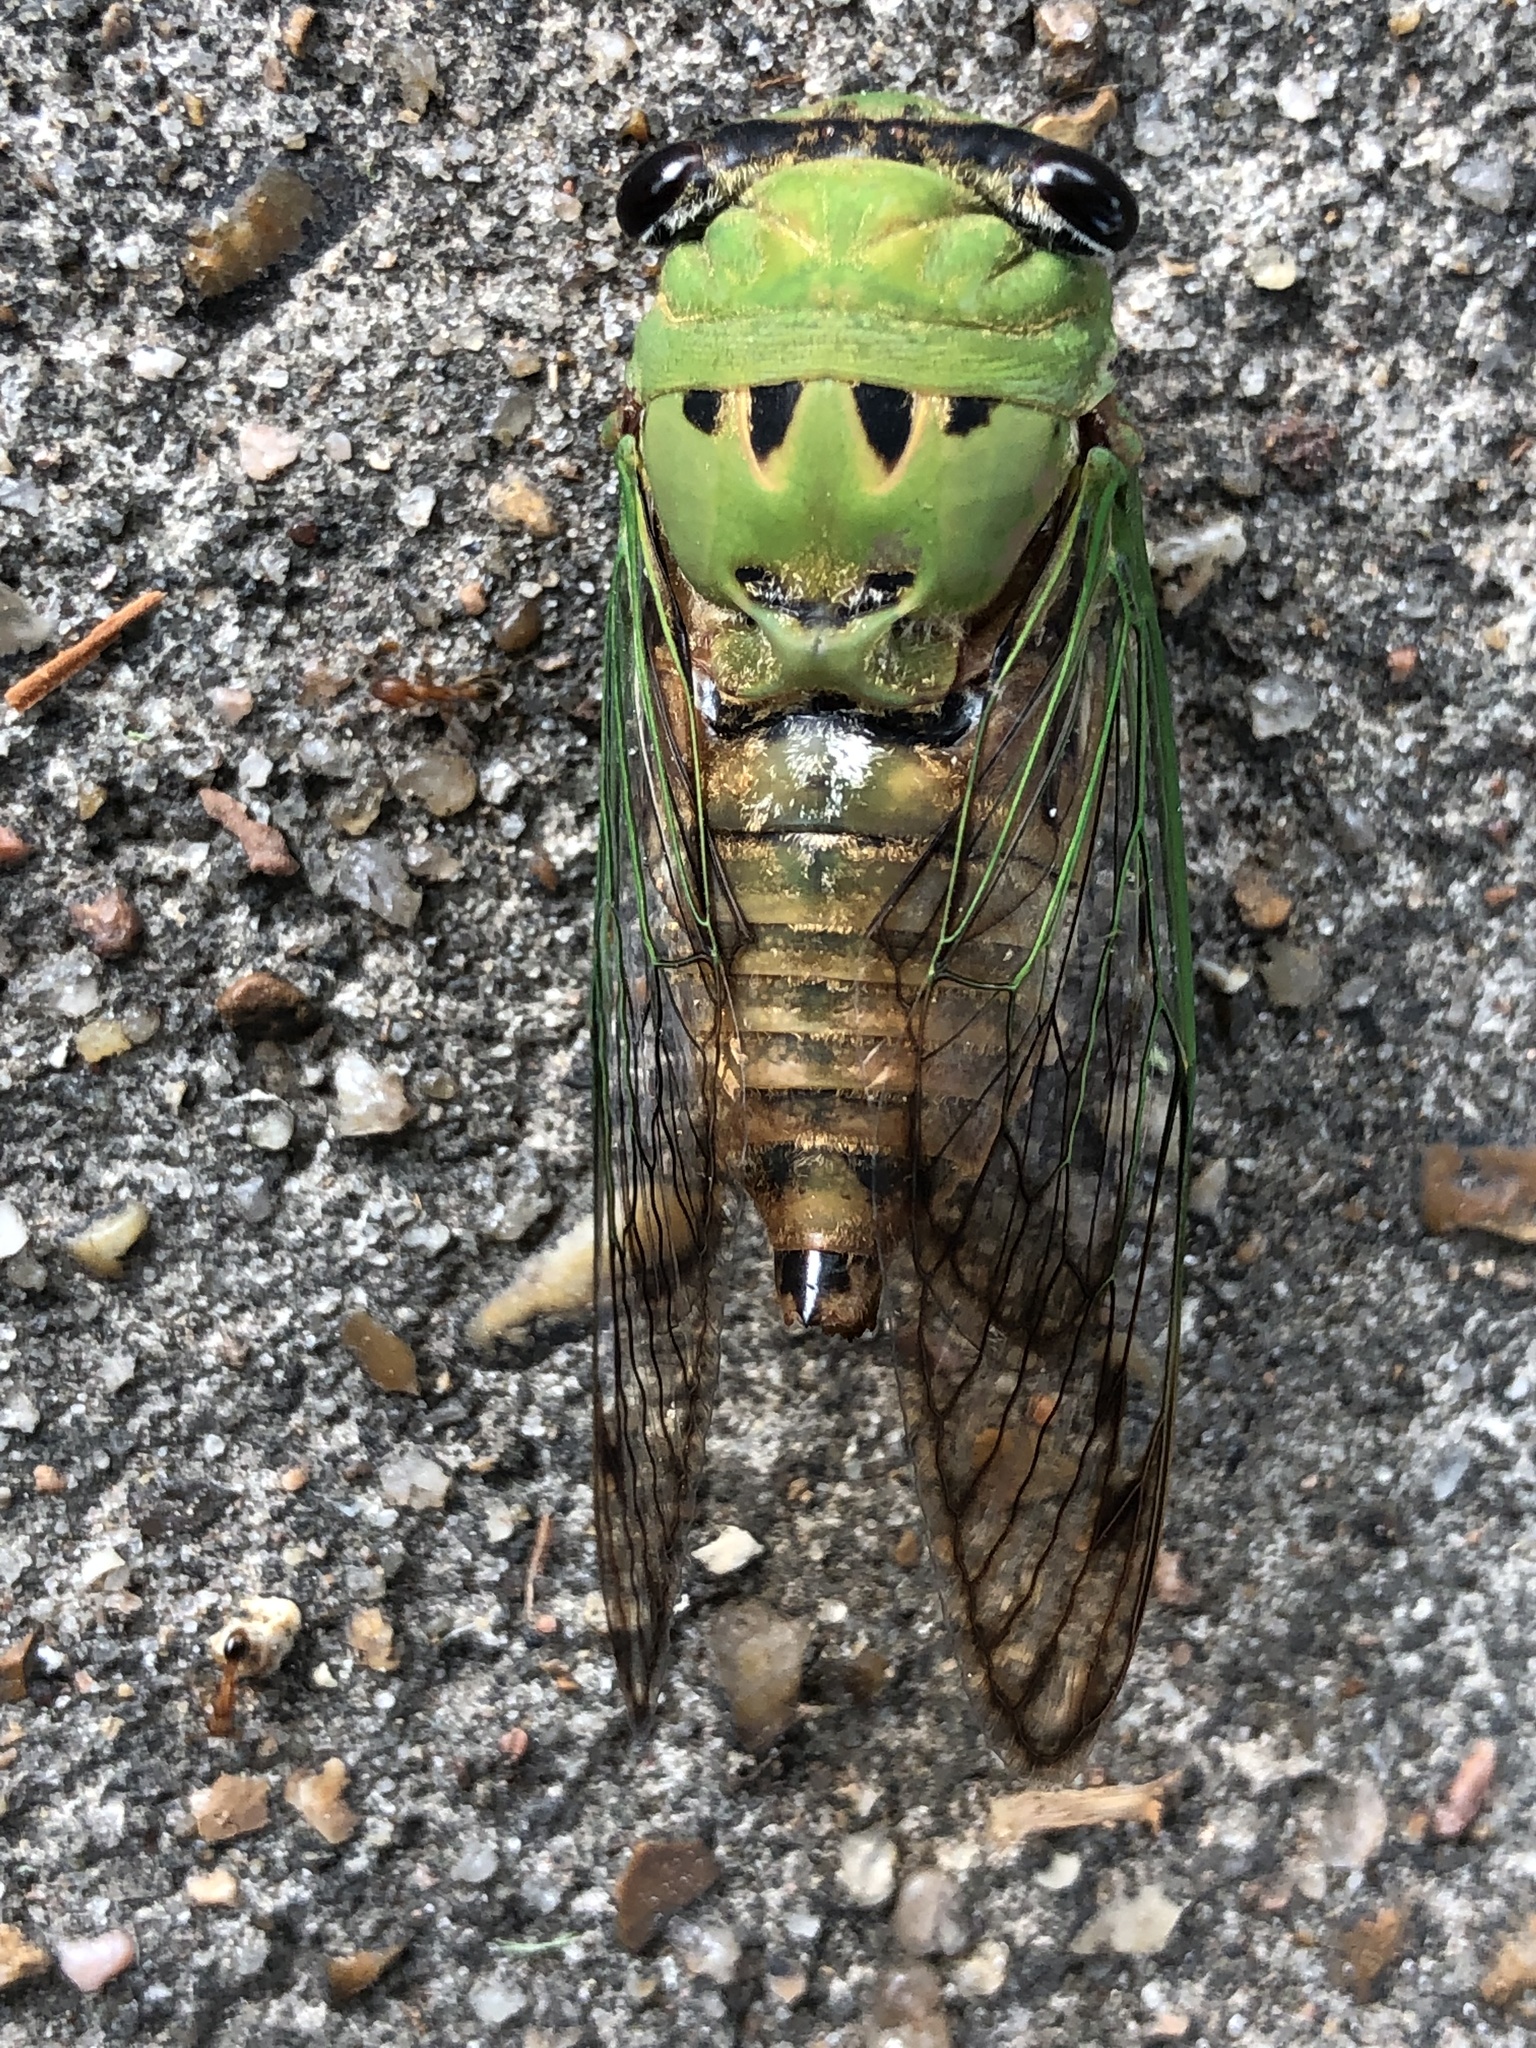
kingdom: Animalia
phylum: Arthropoda
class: Insecta
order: Hemiptera
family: Cicadidae
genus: Neotibicen
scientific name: Neotibicen superbus
